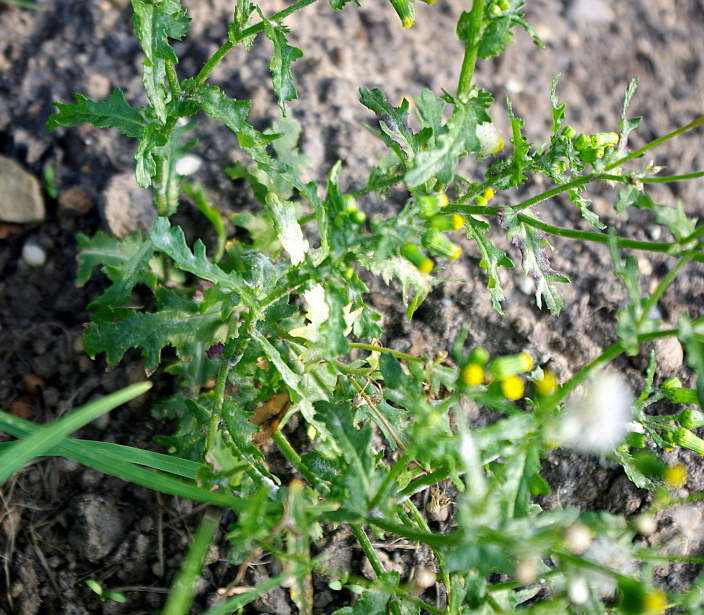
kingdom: Plantae
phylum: Tracheophyta
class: Magnoliopsida
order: Asterales
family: Asteraceae
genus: Senecio
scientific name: Senecio vulgaris
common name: Old-man-in-the-spring
